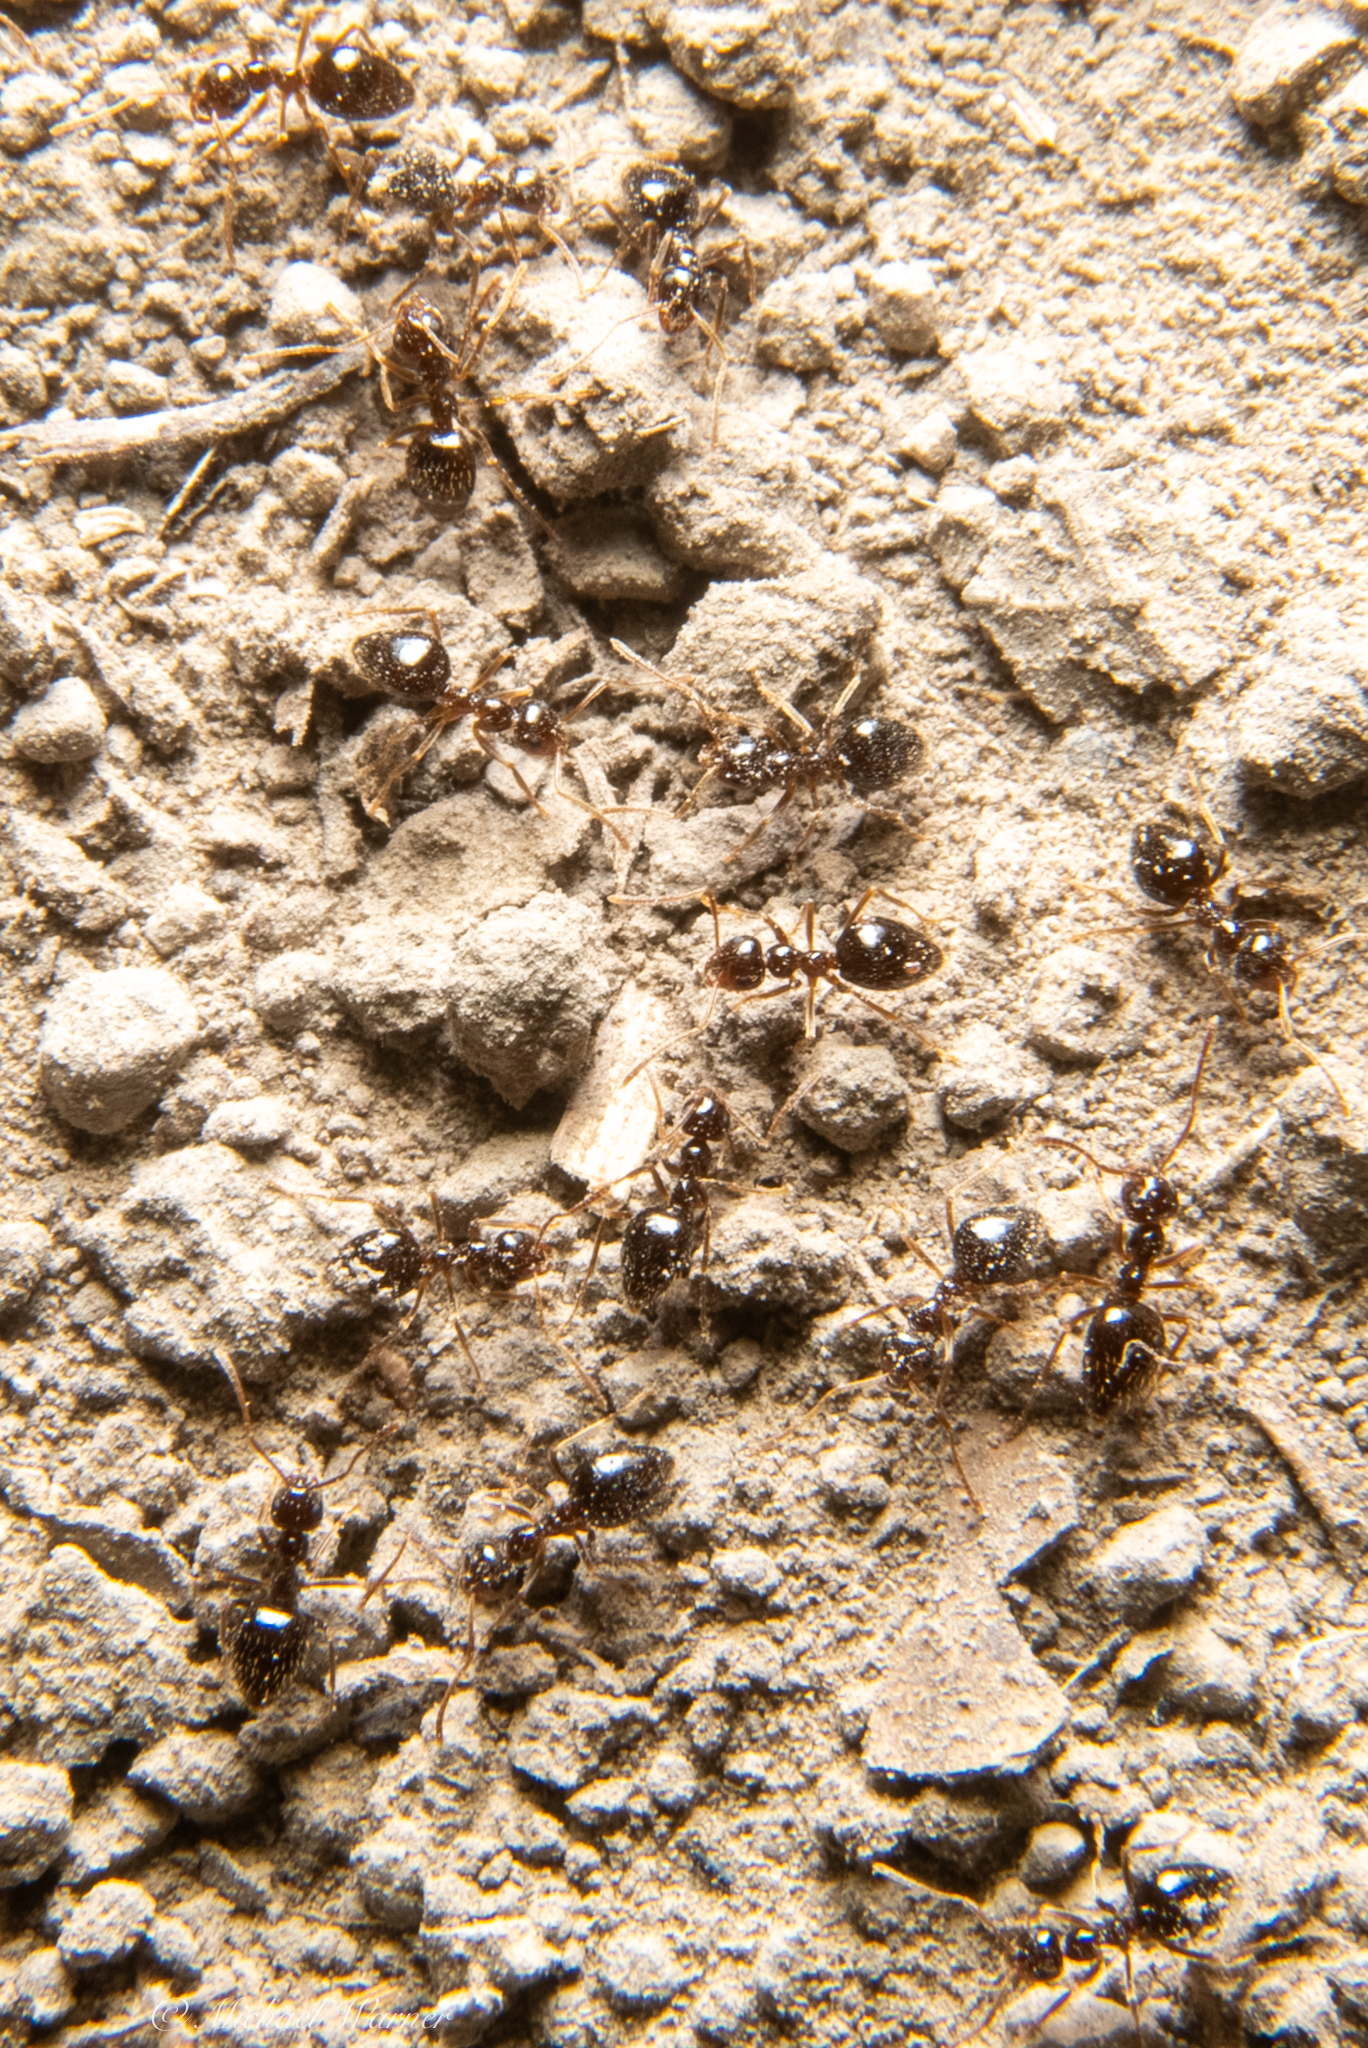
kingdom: Animalia
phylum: Arthropoda
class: Insecta
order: Hymenoptera
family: Formicidae
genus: Prenolepis
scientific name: Prenolepis imparis
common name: Small honey ant
